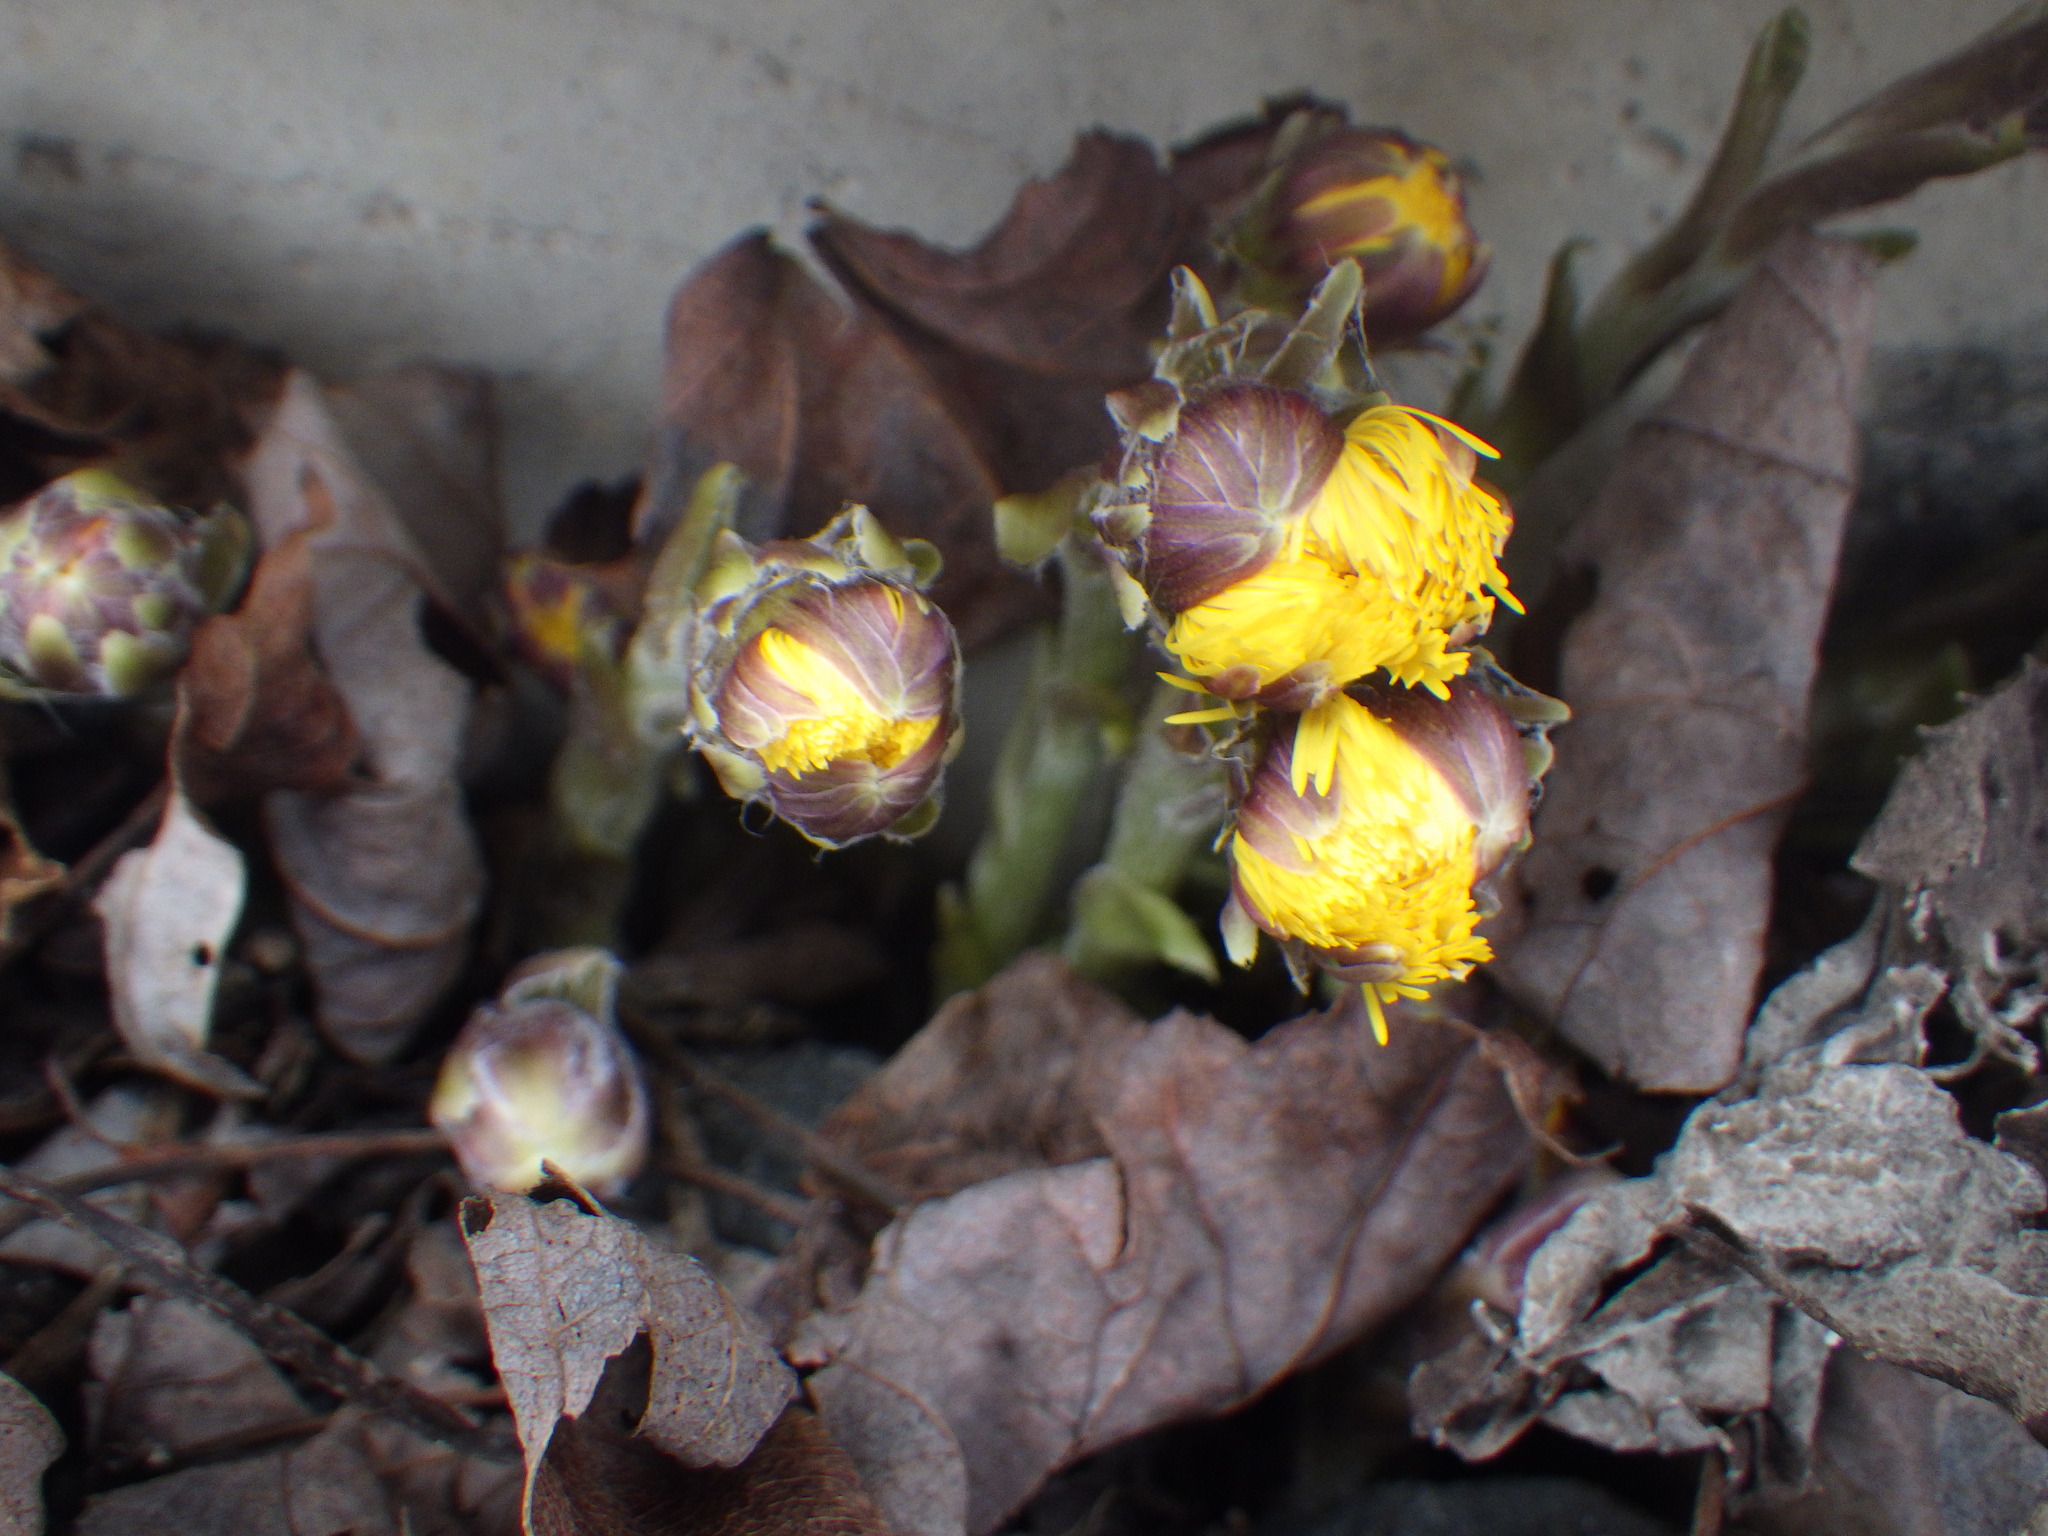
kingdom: Plantae
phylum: Tracheophyta
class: Magnoliopsida
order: Asterales
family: Asteraceae
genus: Tussilago
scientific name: Tussilago farfara
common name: Coltsfoot
